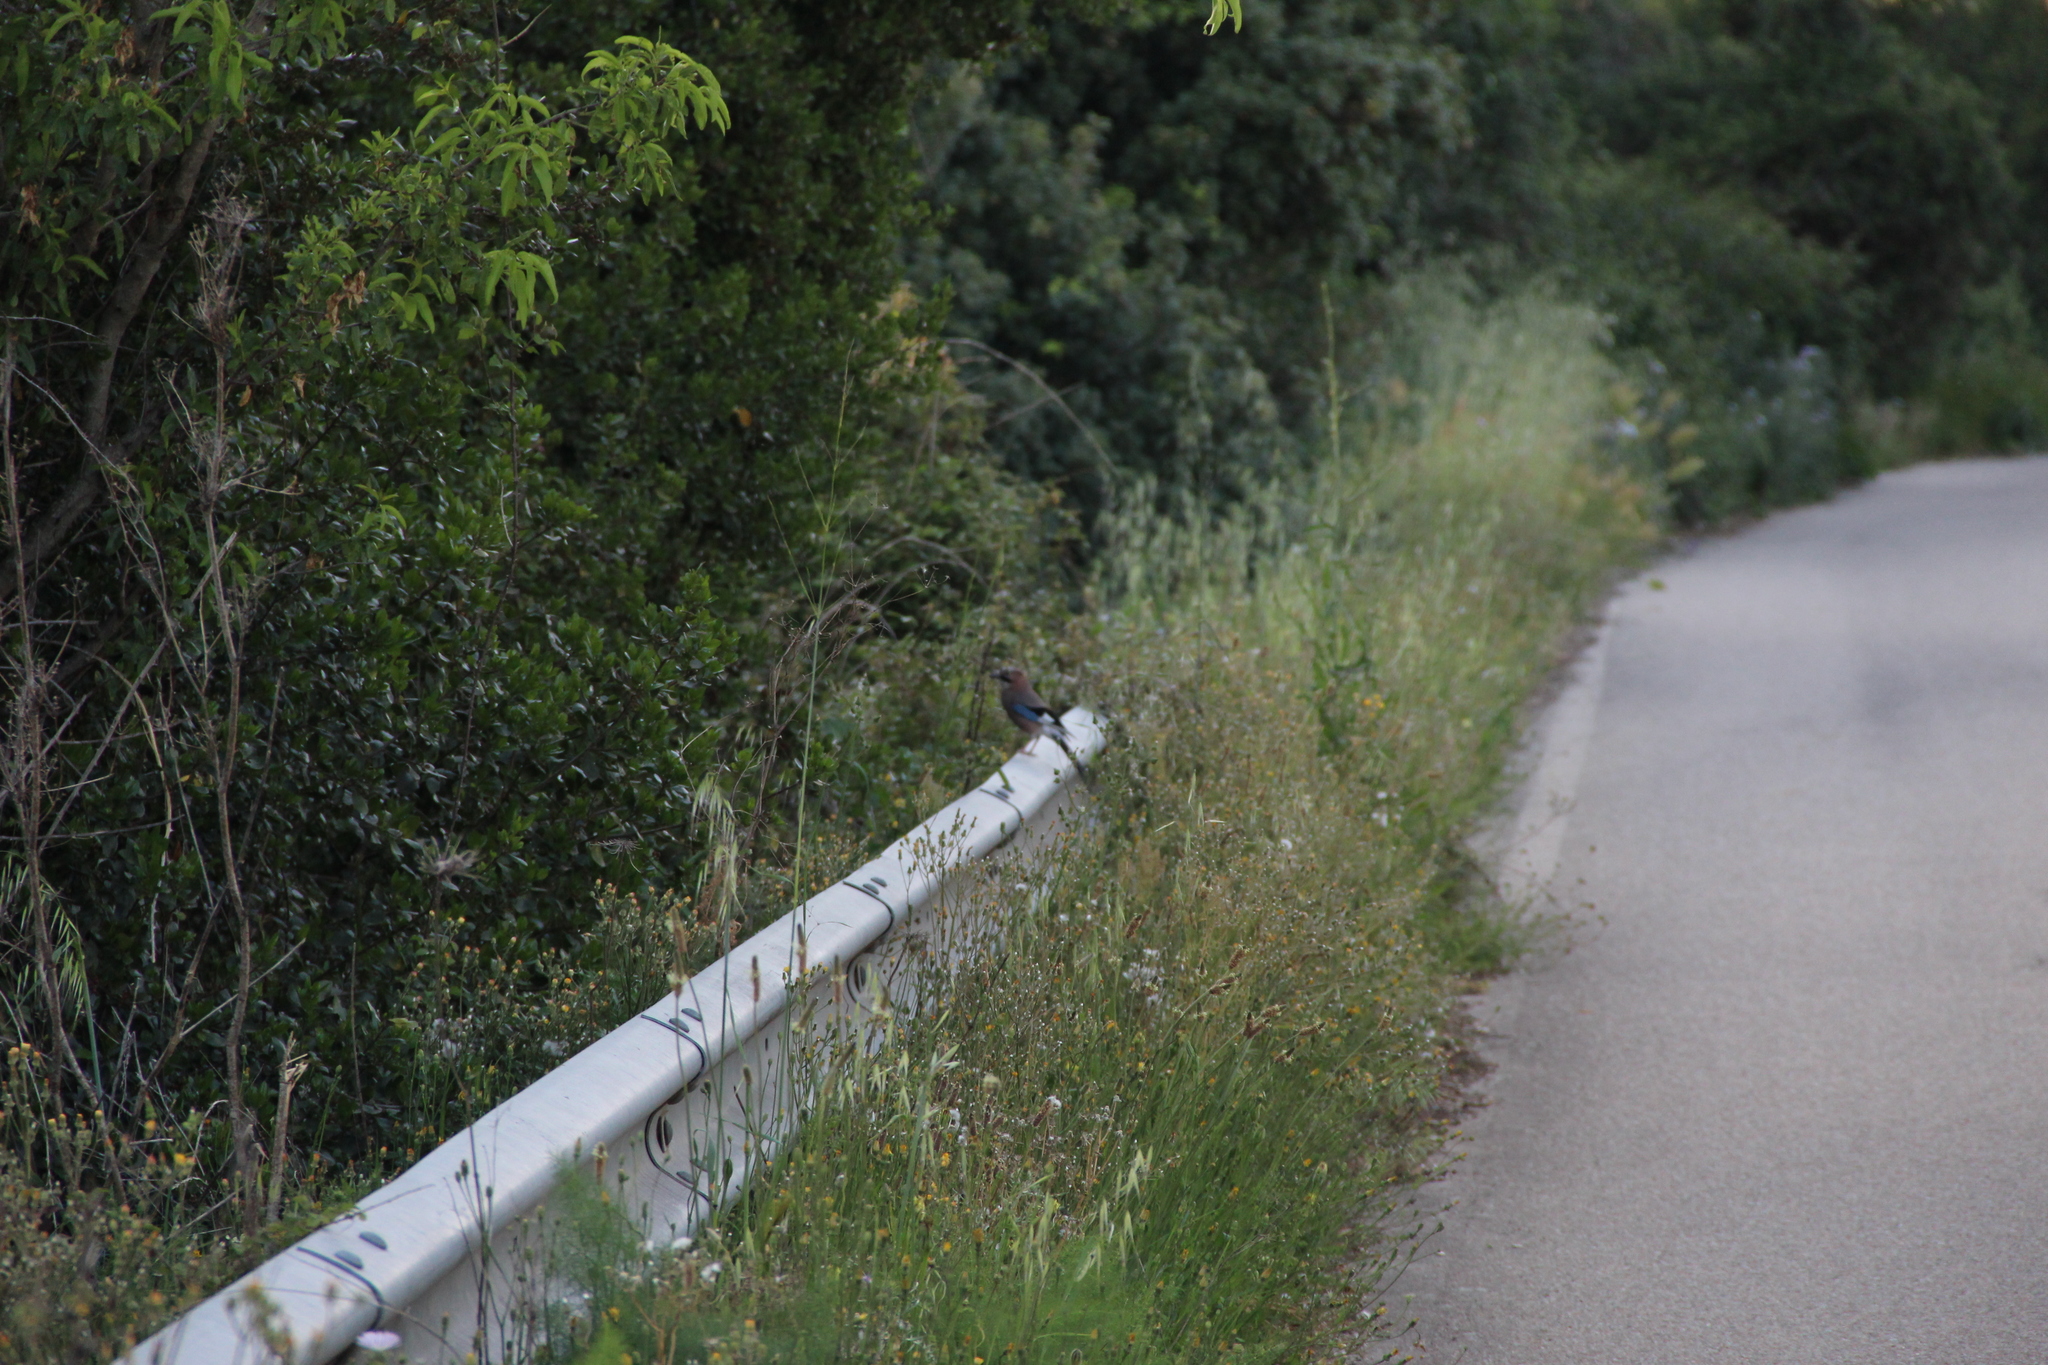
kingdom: Animalia
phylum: Chordata
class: Aves
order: Passeriformes
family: Corvidae
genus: Garrulus
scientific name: Garrulus glandarius
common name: Eurasian jay
